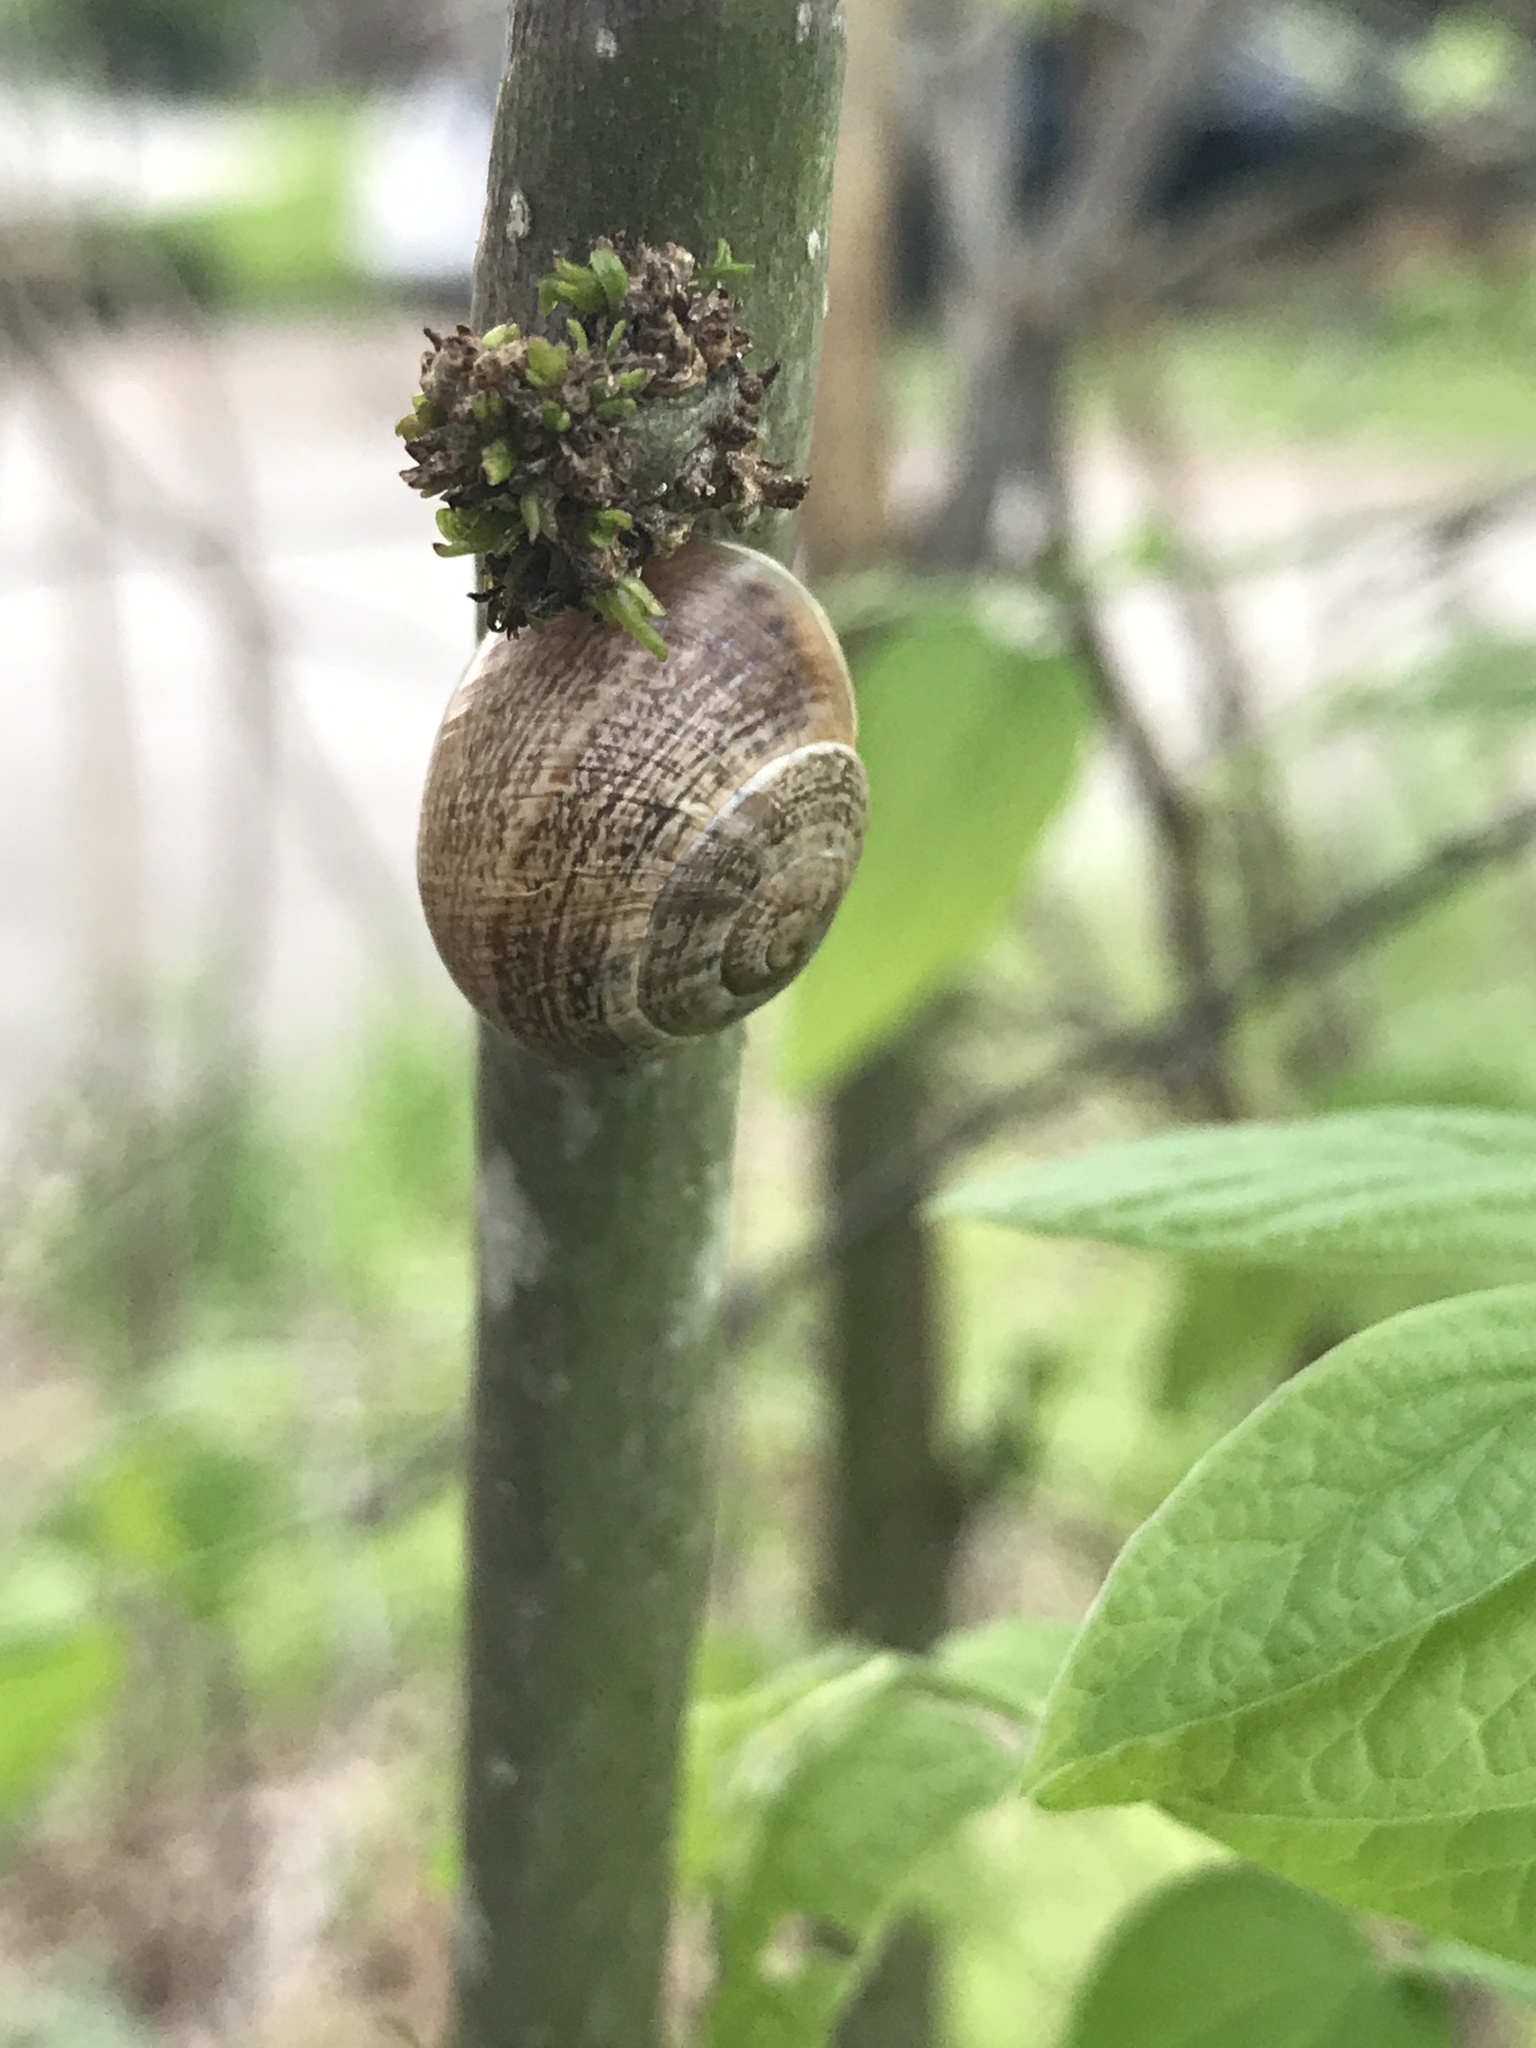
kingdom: Animalia
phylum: Mollusca
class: Gastropoda
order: Stylommatophora
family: Helicidae
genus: Otala
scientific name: Otala lactea
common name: Milk snail
